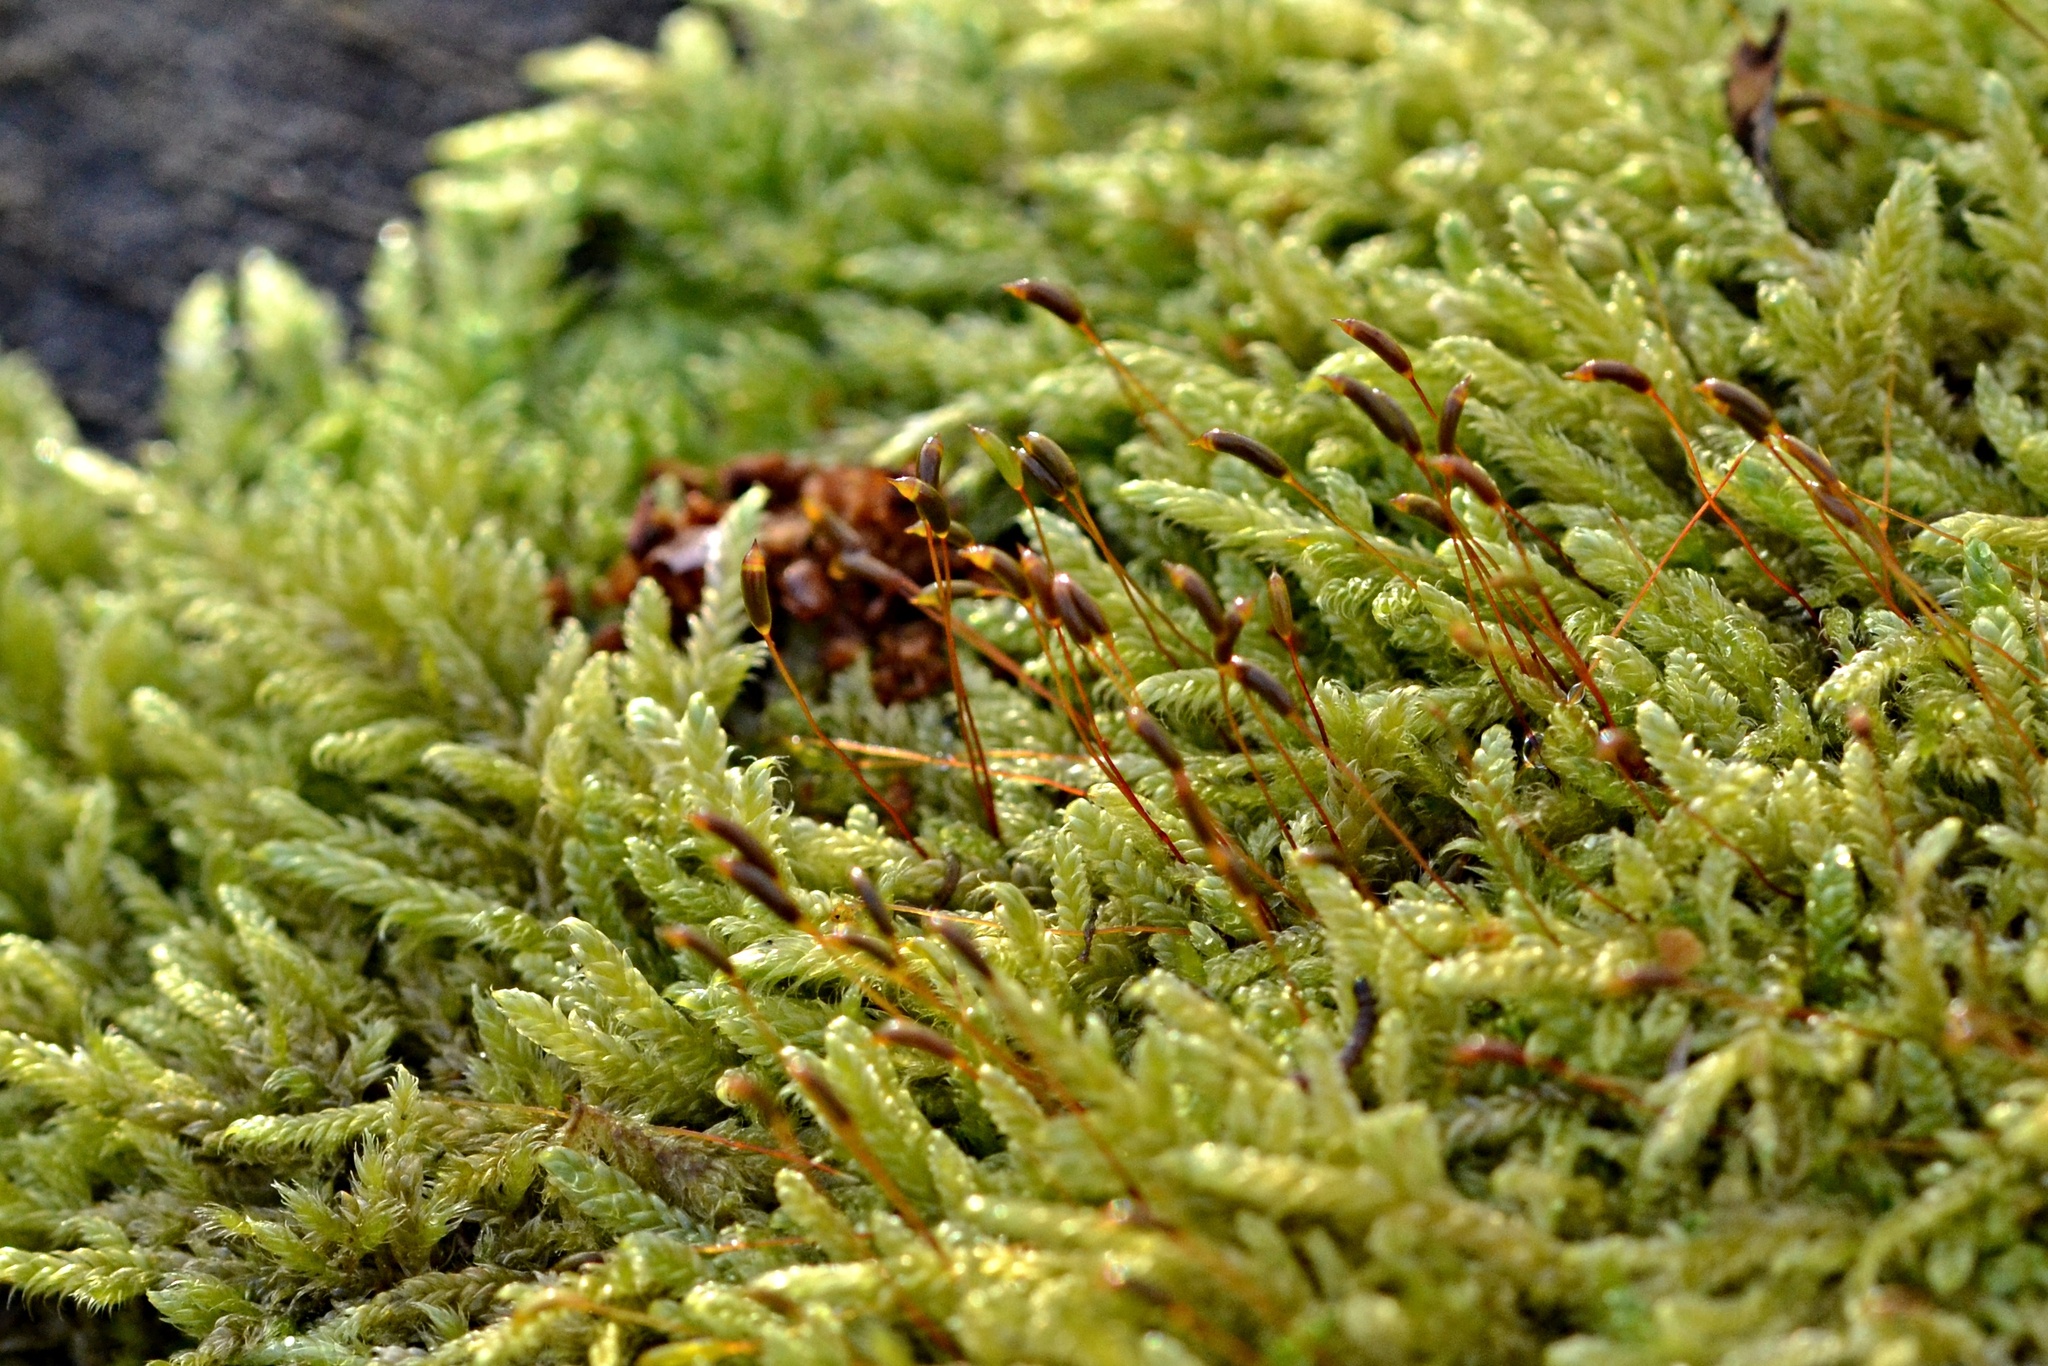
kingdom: Plantae
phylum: Bryophyta
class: Bryopsida
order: Hypnales
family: Hypnaceae
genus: Hypnum
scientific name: Hypnum cupressiforme
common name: Cypress-leaved plait-moss
